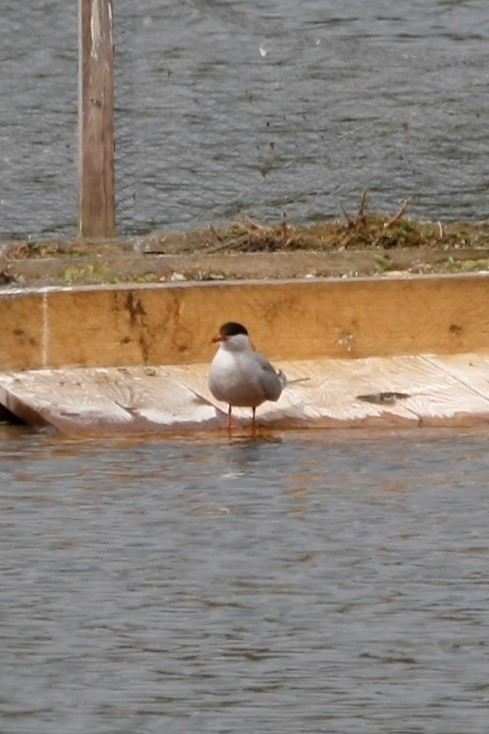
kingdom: Animalia
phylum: Chordata
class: Aves
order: Charadriiformes
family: Laridae
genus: Sterna
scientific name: Sterna hirundo
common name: Common tern
